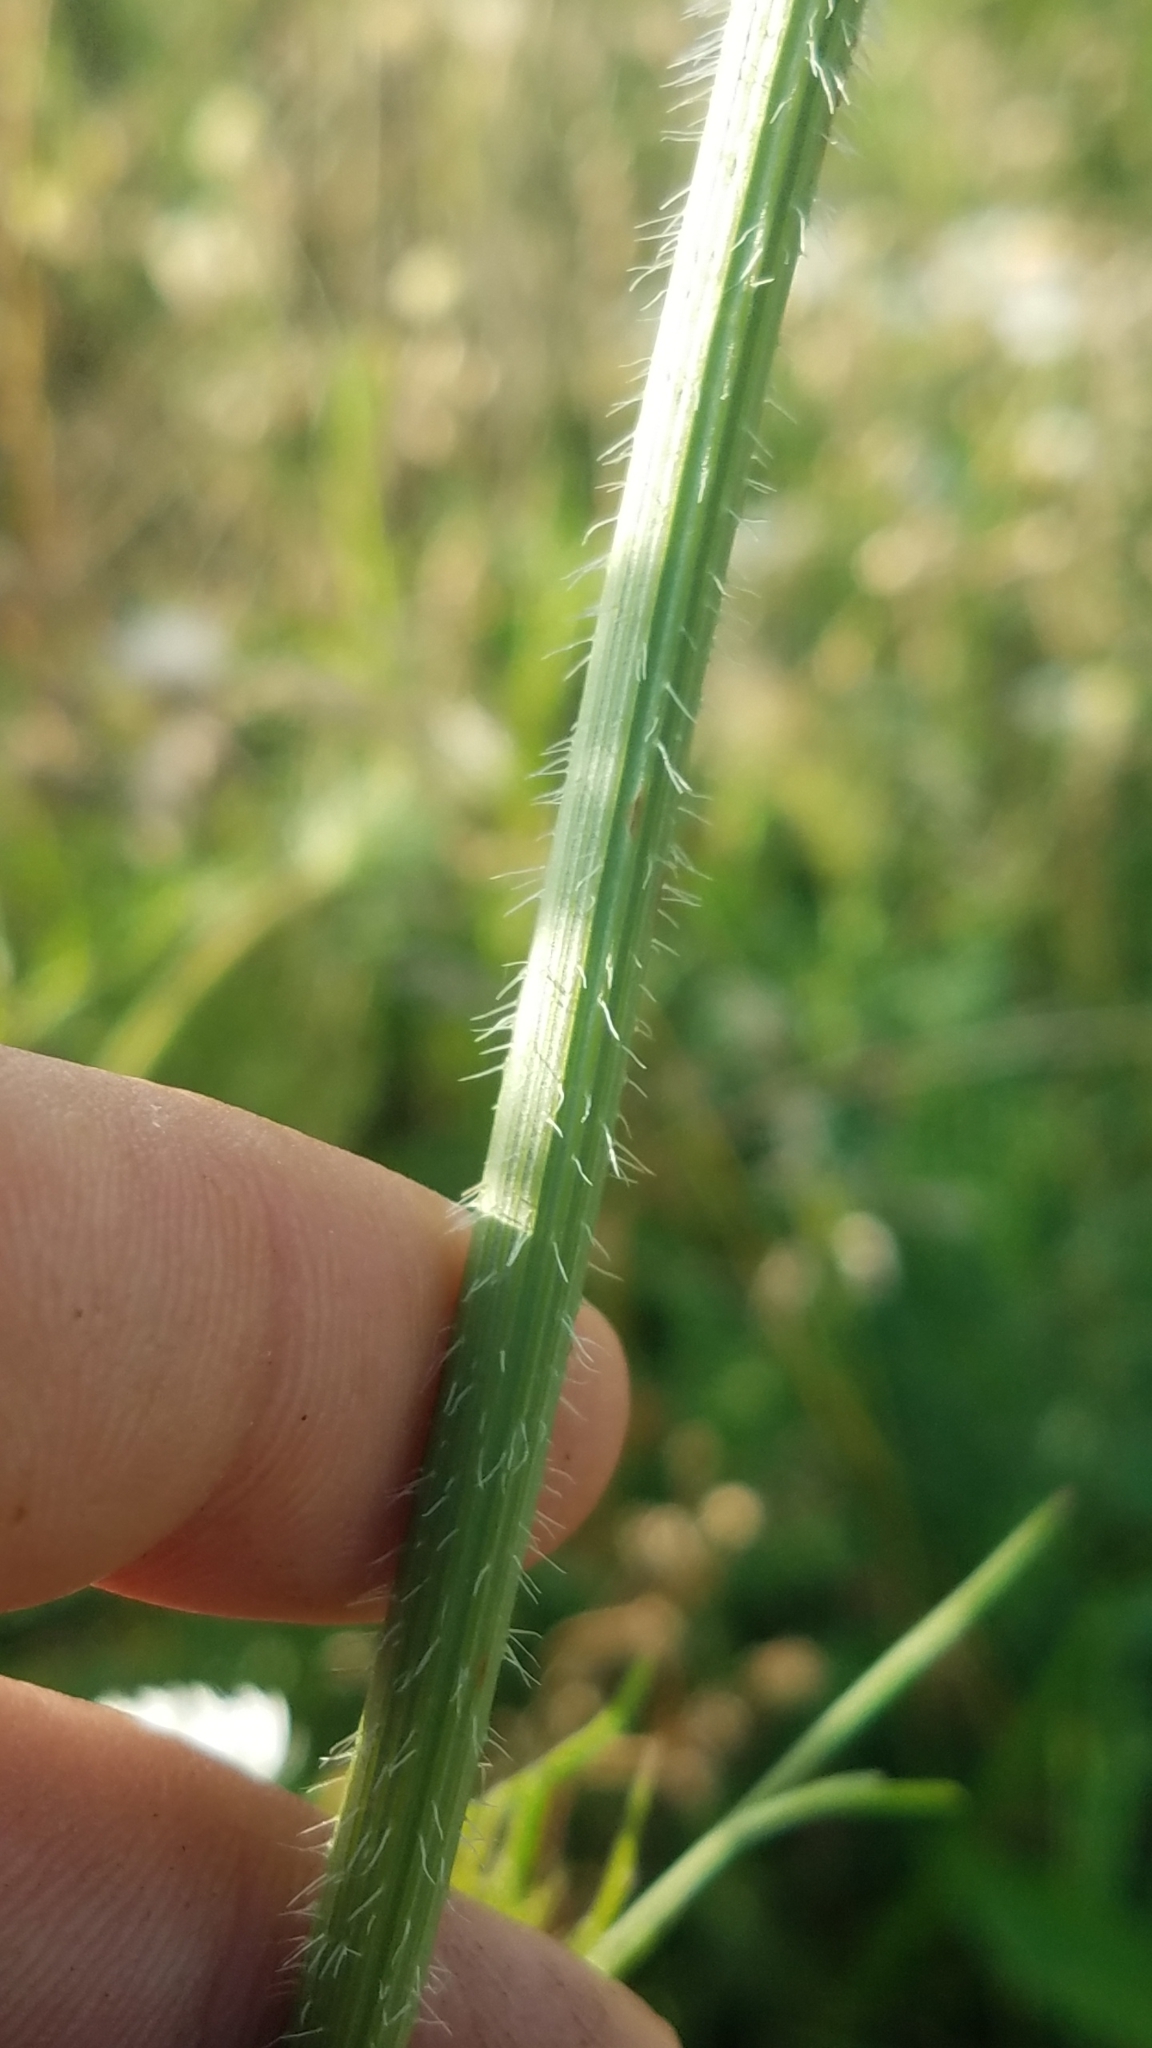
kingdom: Plantae
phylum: Tracheophyta
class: Magnoliopsida
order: Apiales
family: Apiaceae
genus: Daucus
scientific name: Daucus carota
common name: Wild carrot
